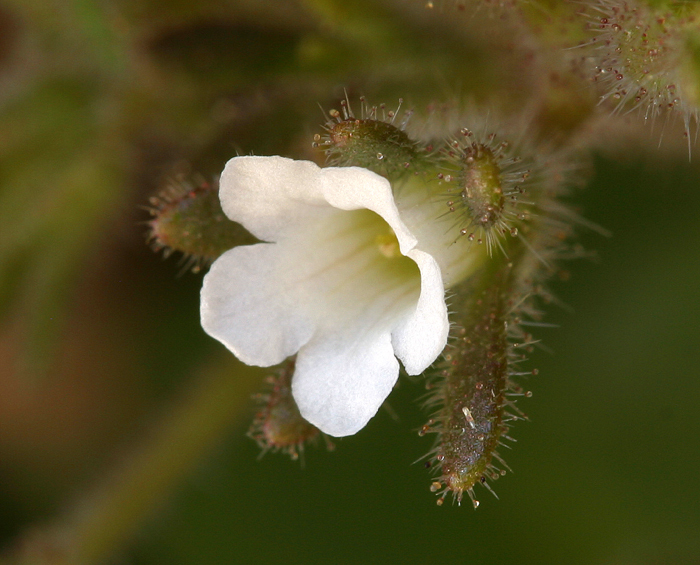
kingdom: Plantae
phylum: Tracheophyta
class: Magnoliopsida
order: Boraginales
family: Hydrophyllaceae
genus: Phacelia
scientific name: Phacelia rotundifolia
